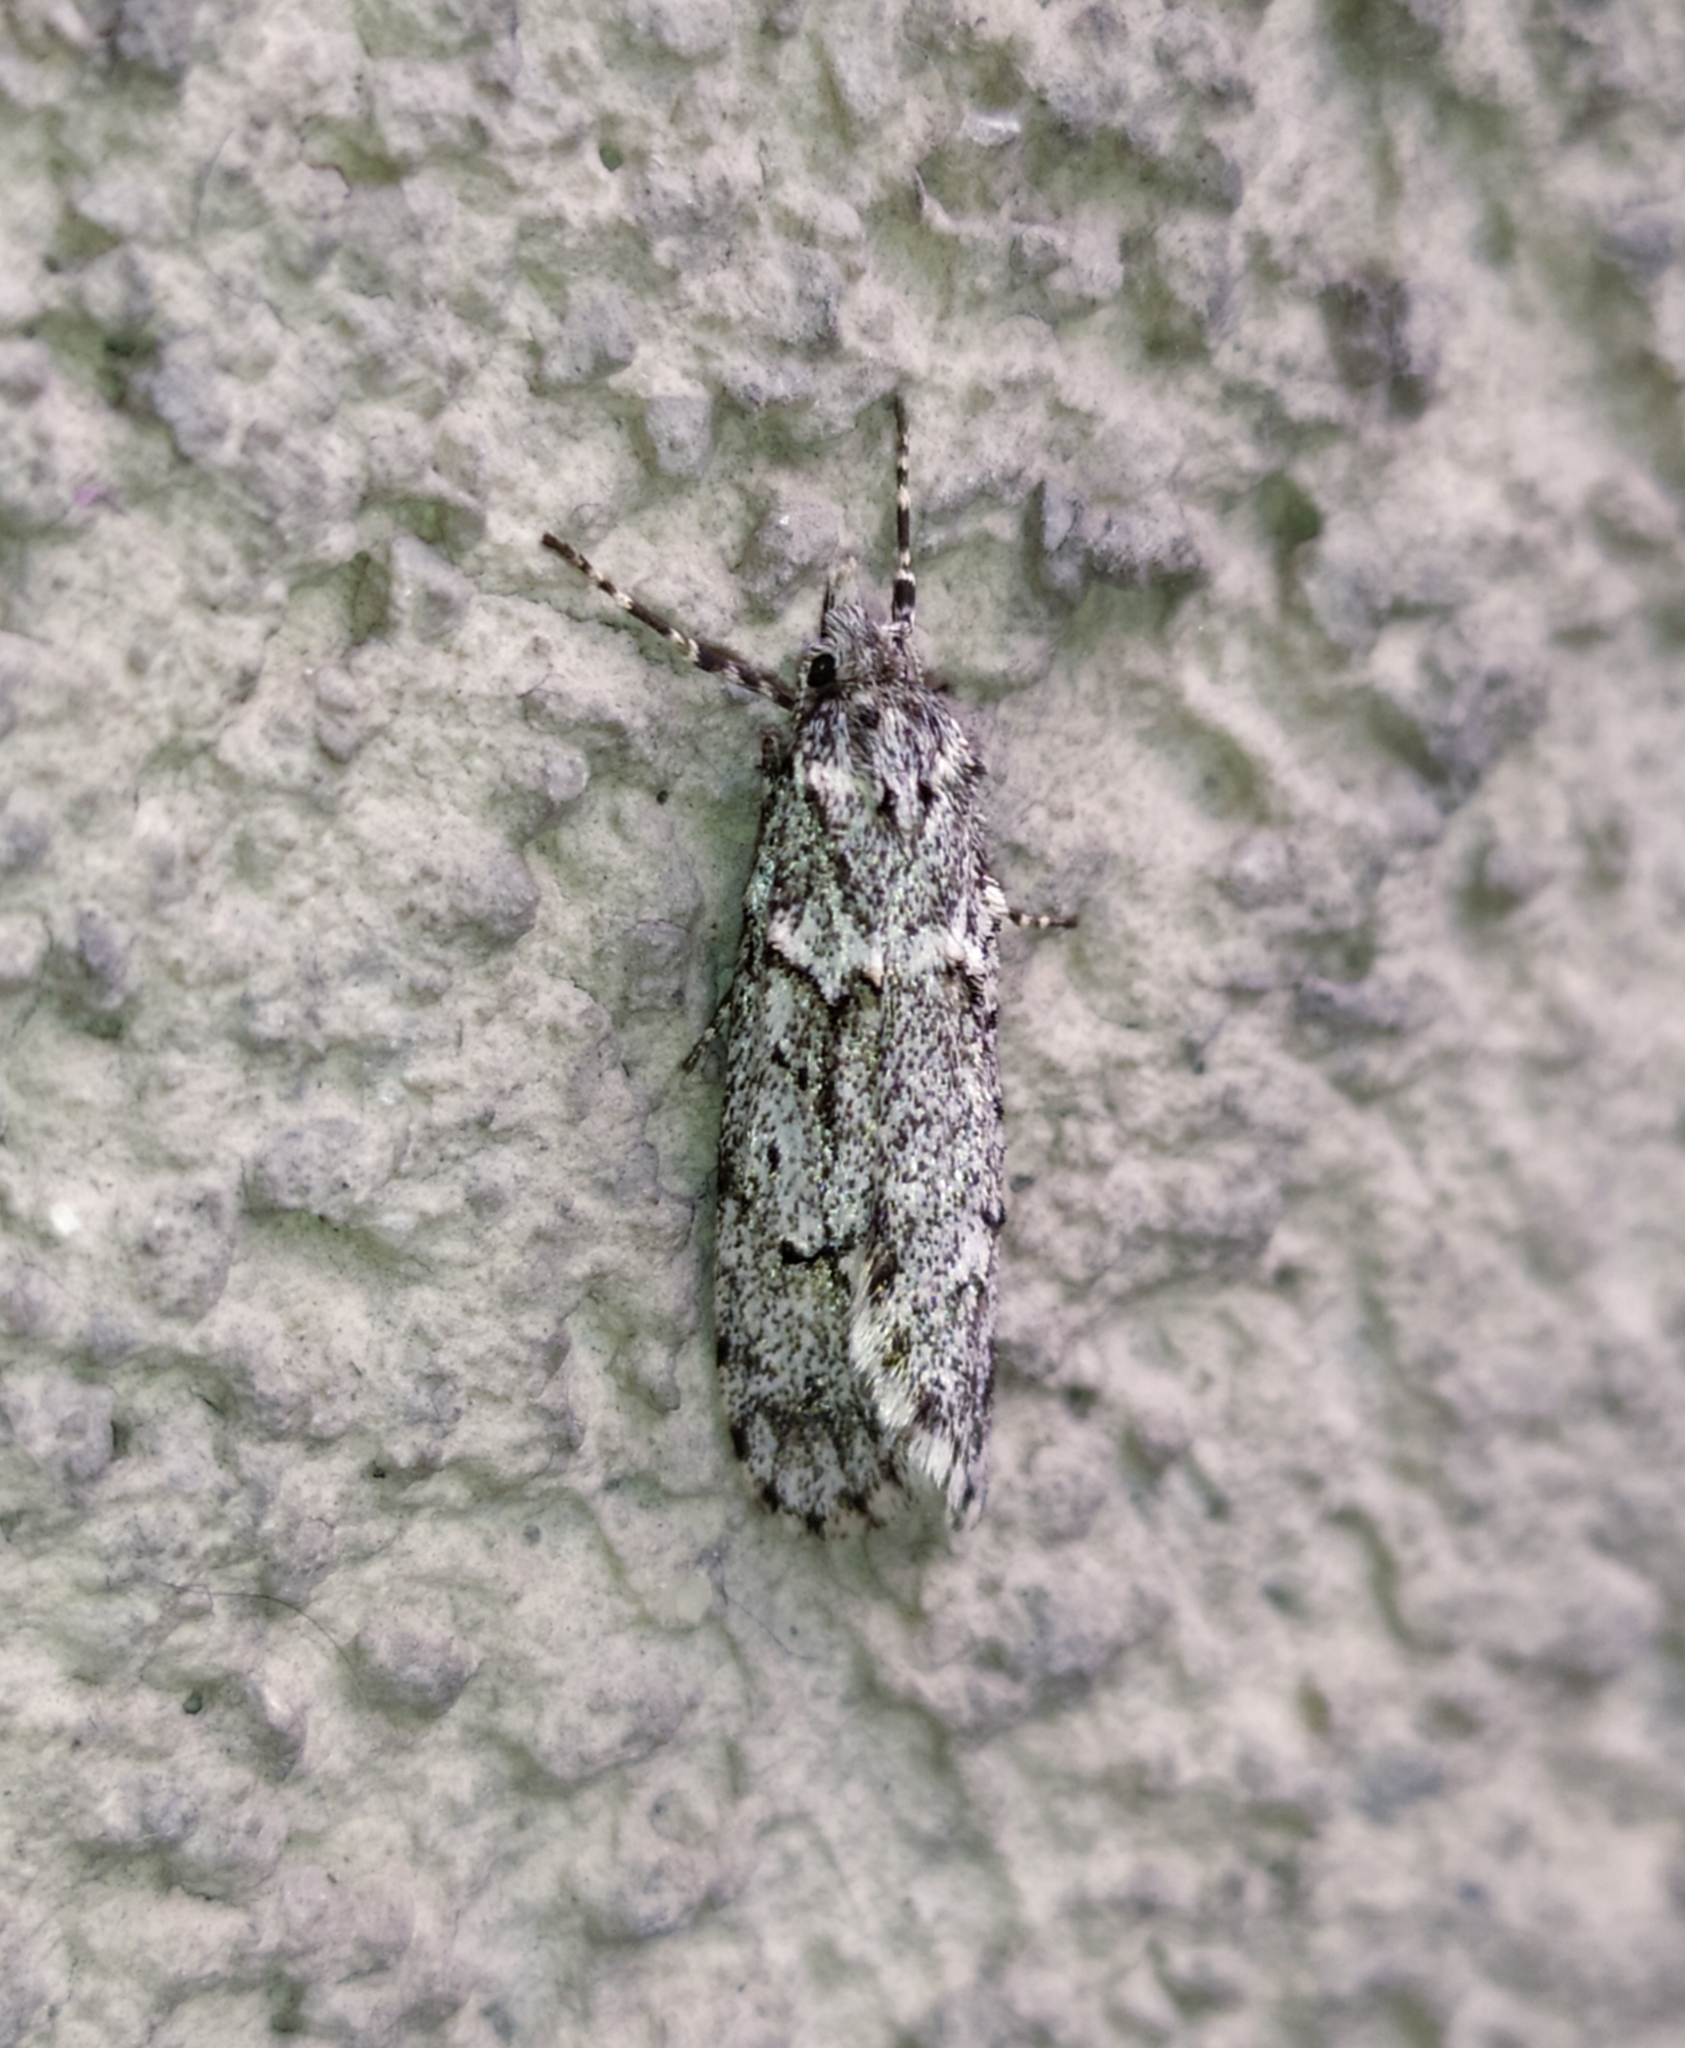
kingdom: Animalia
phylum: Arthropoda
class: Insecta
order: Lepidoptera
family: Lypusidae
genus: Diurnea
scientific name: Diurnea fagella
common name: March tubic
